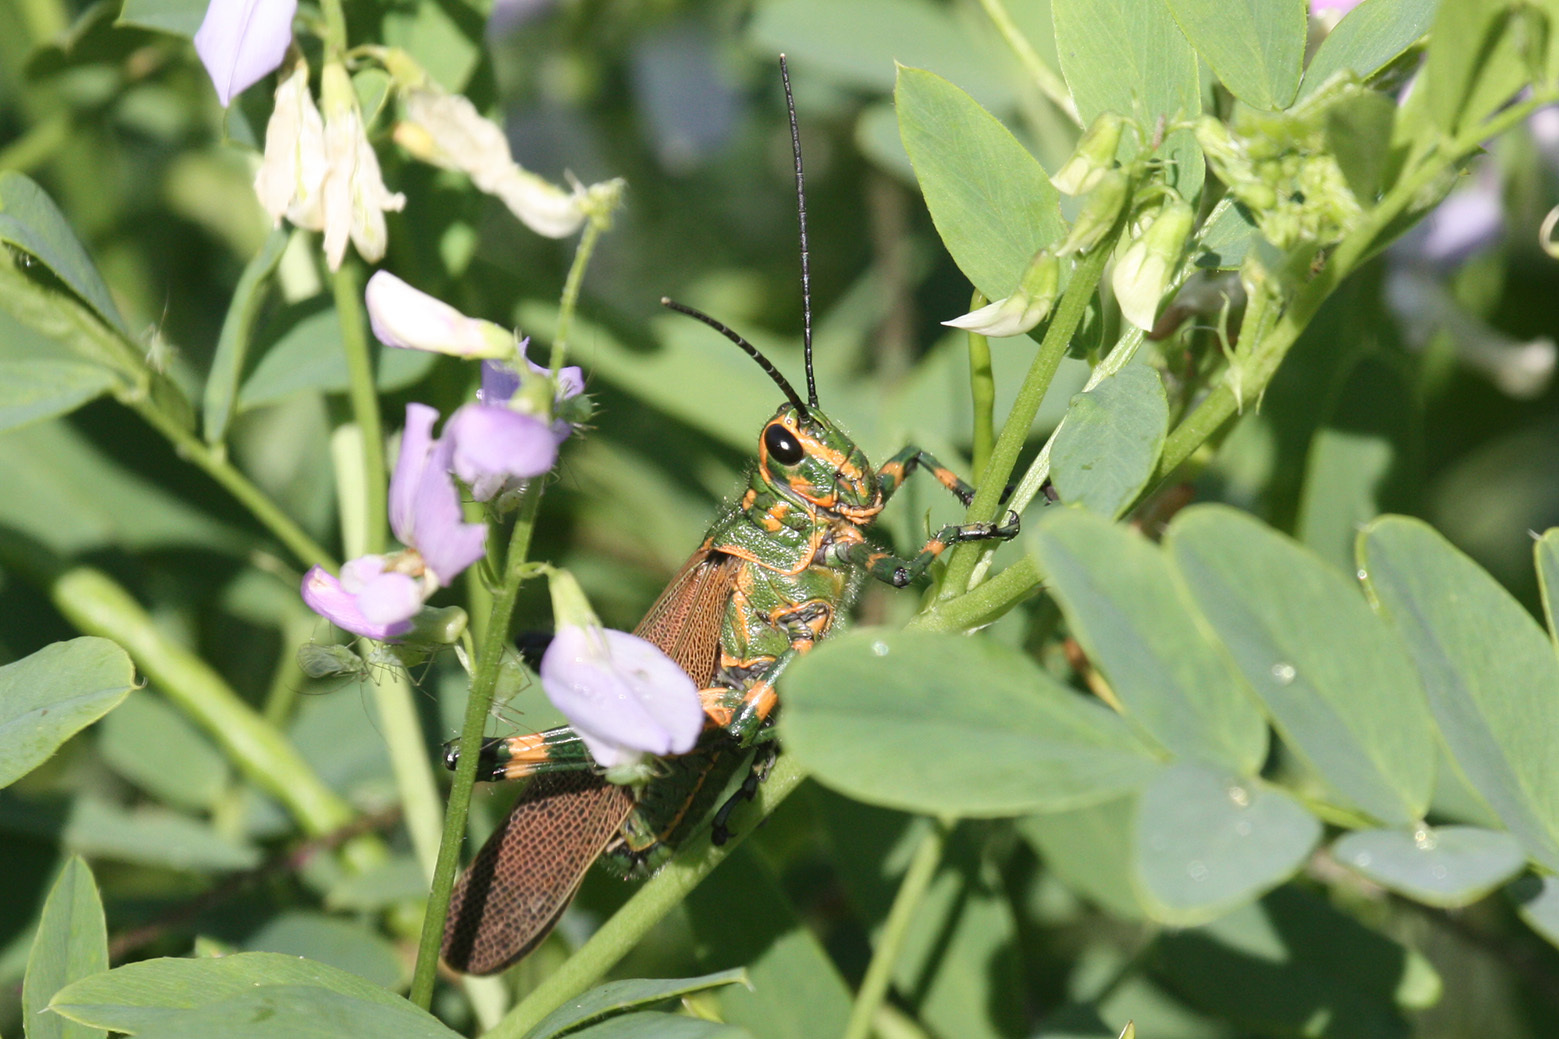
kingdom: Animalia
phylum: Arthropoda
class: Insecta
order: Orthoptera
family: Romaleidae
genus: Chromacris
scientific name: Chromacris speciosa
